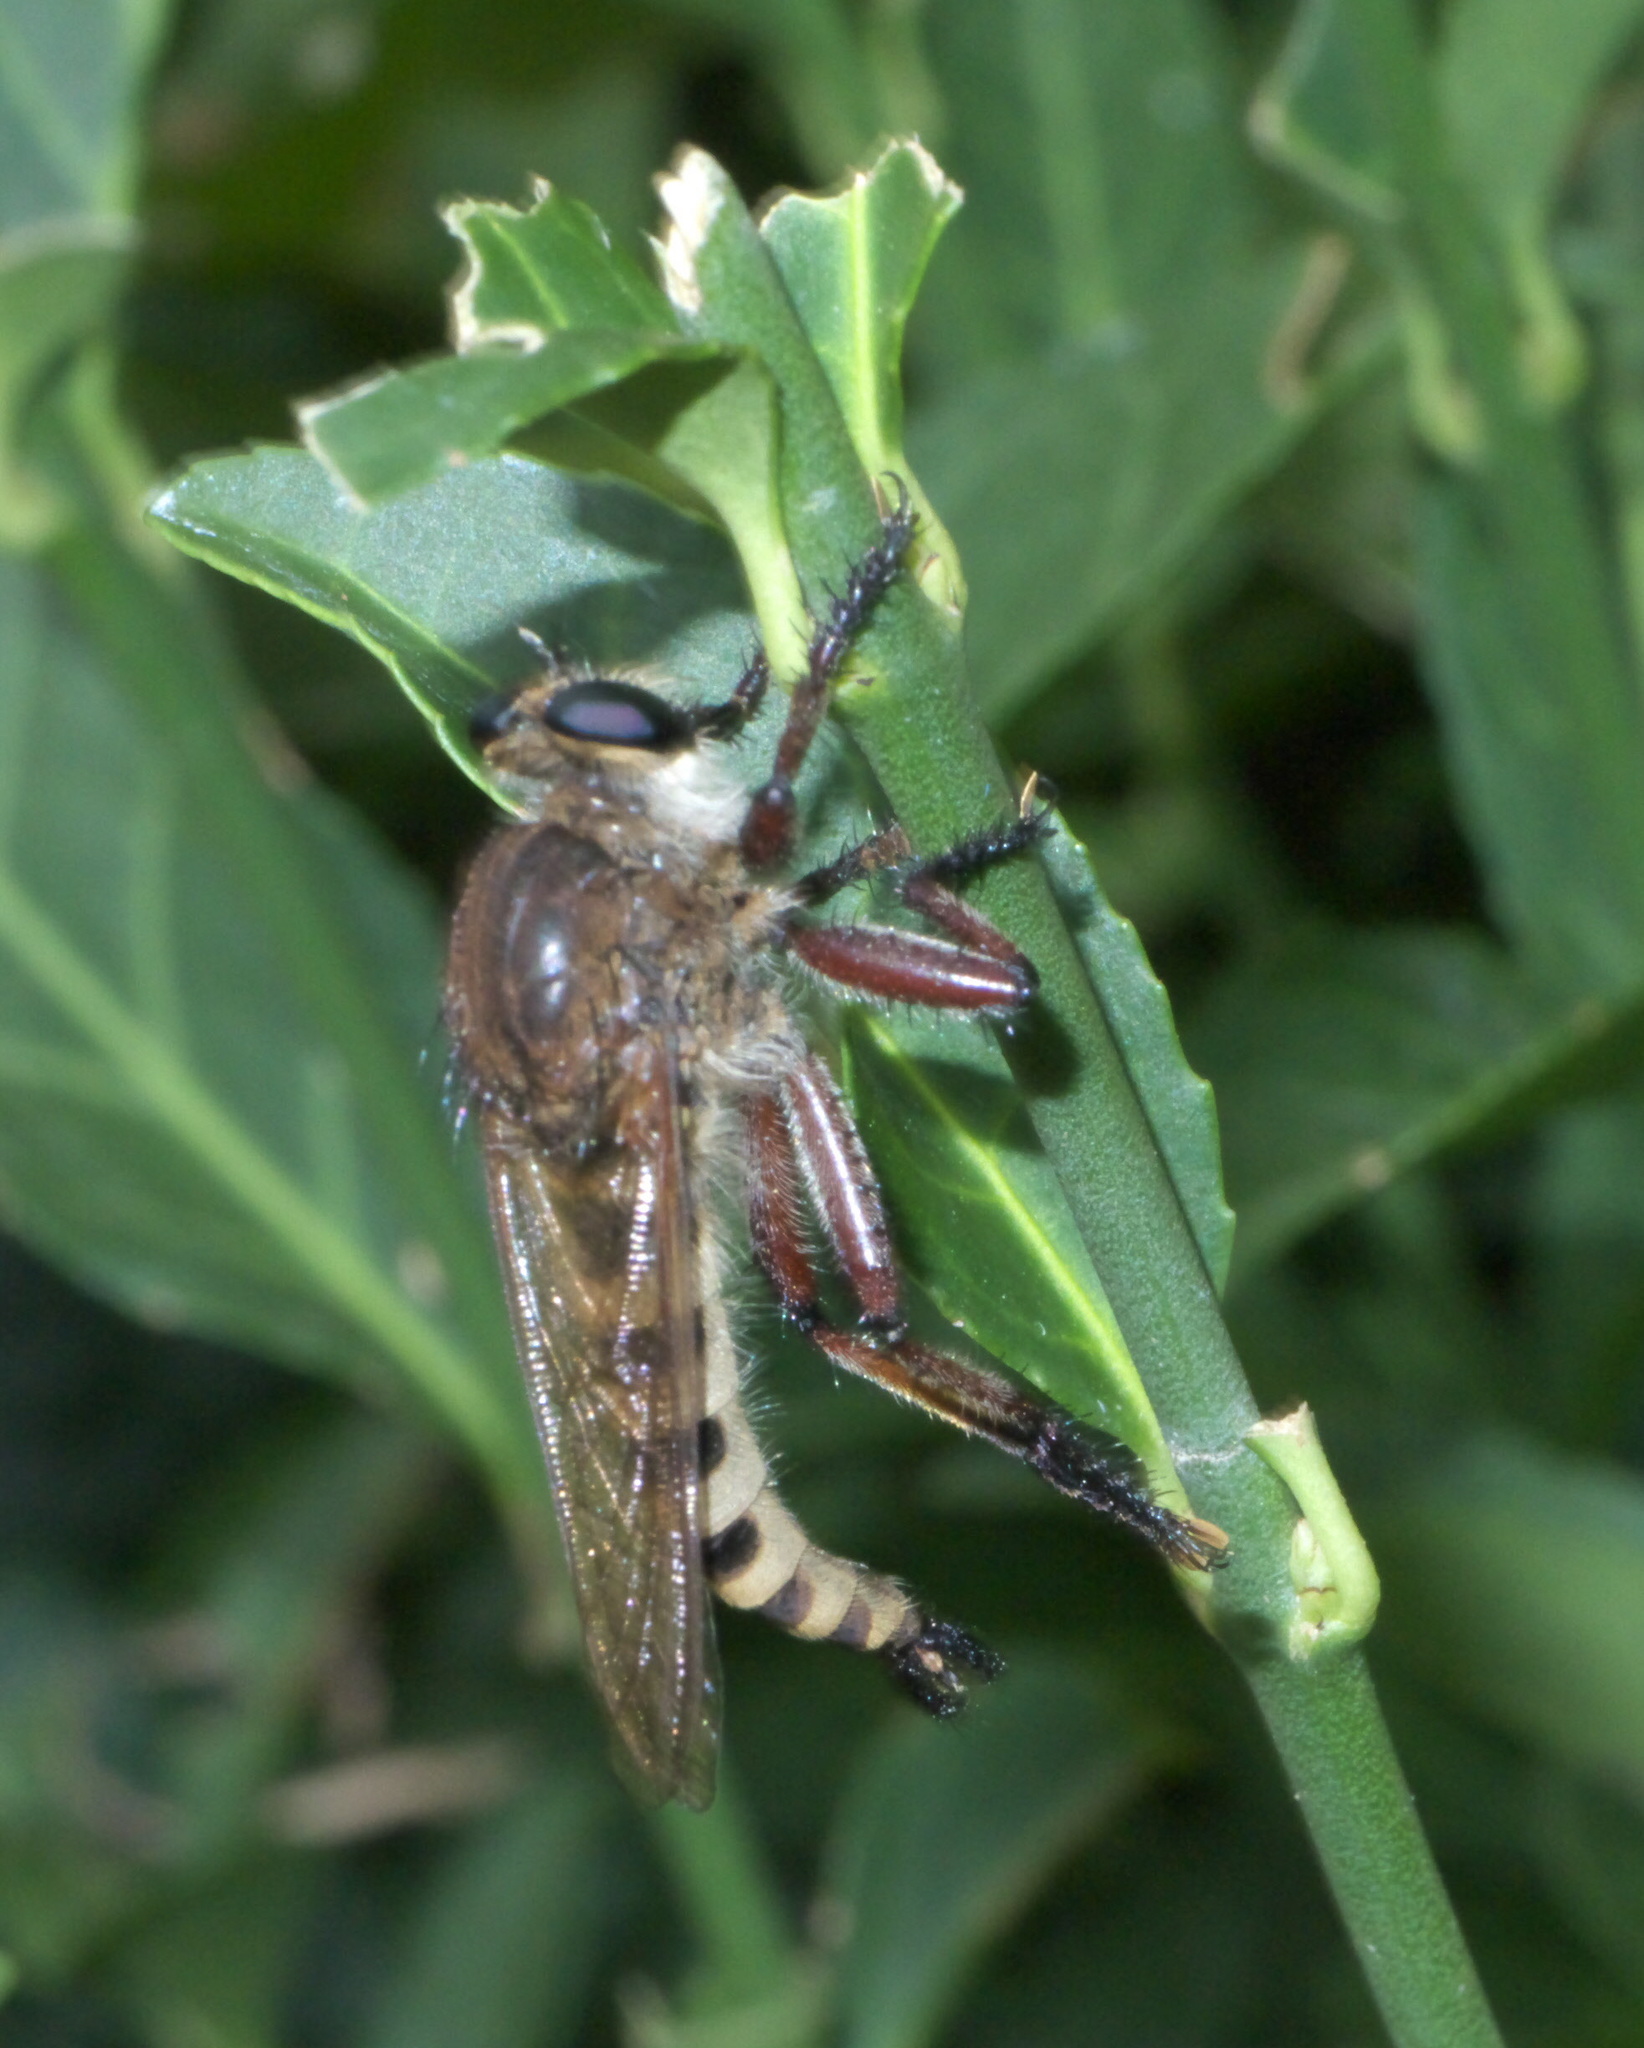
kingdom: Animalia
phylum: Arthropoda
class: Insecta
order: Diptera
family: Asilidae
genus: Promachus
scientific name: Promachus hinei
